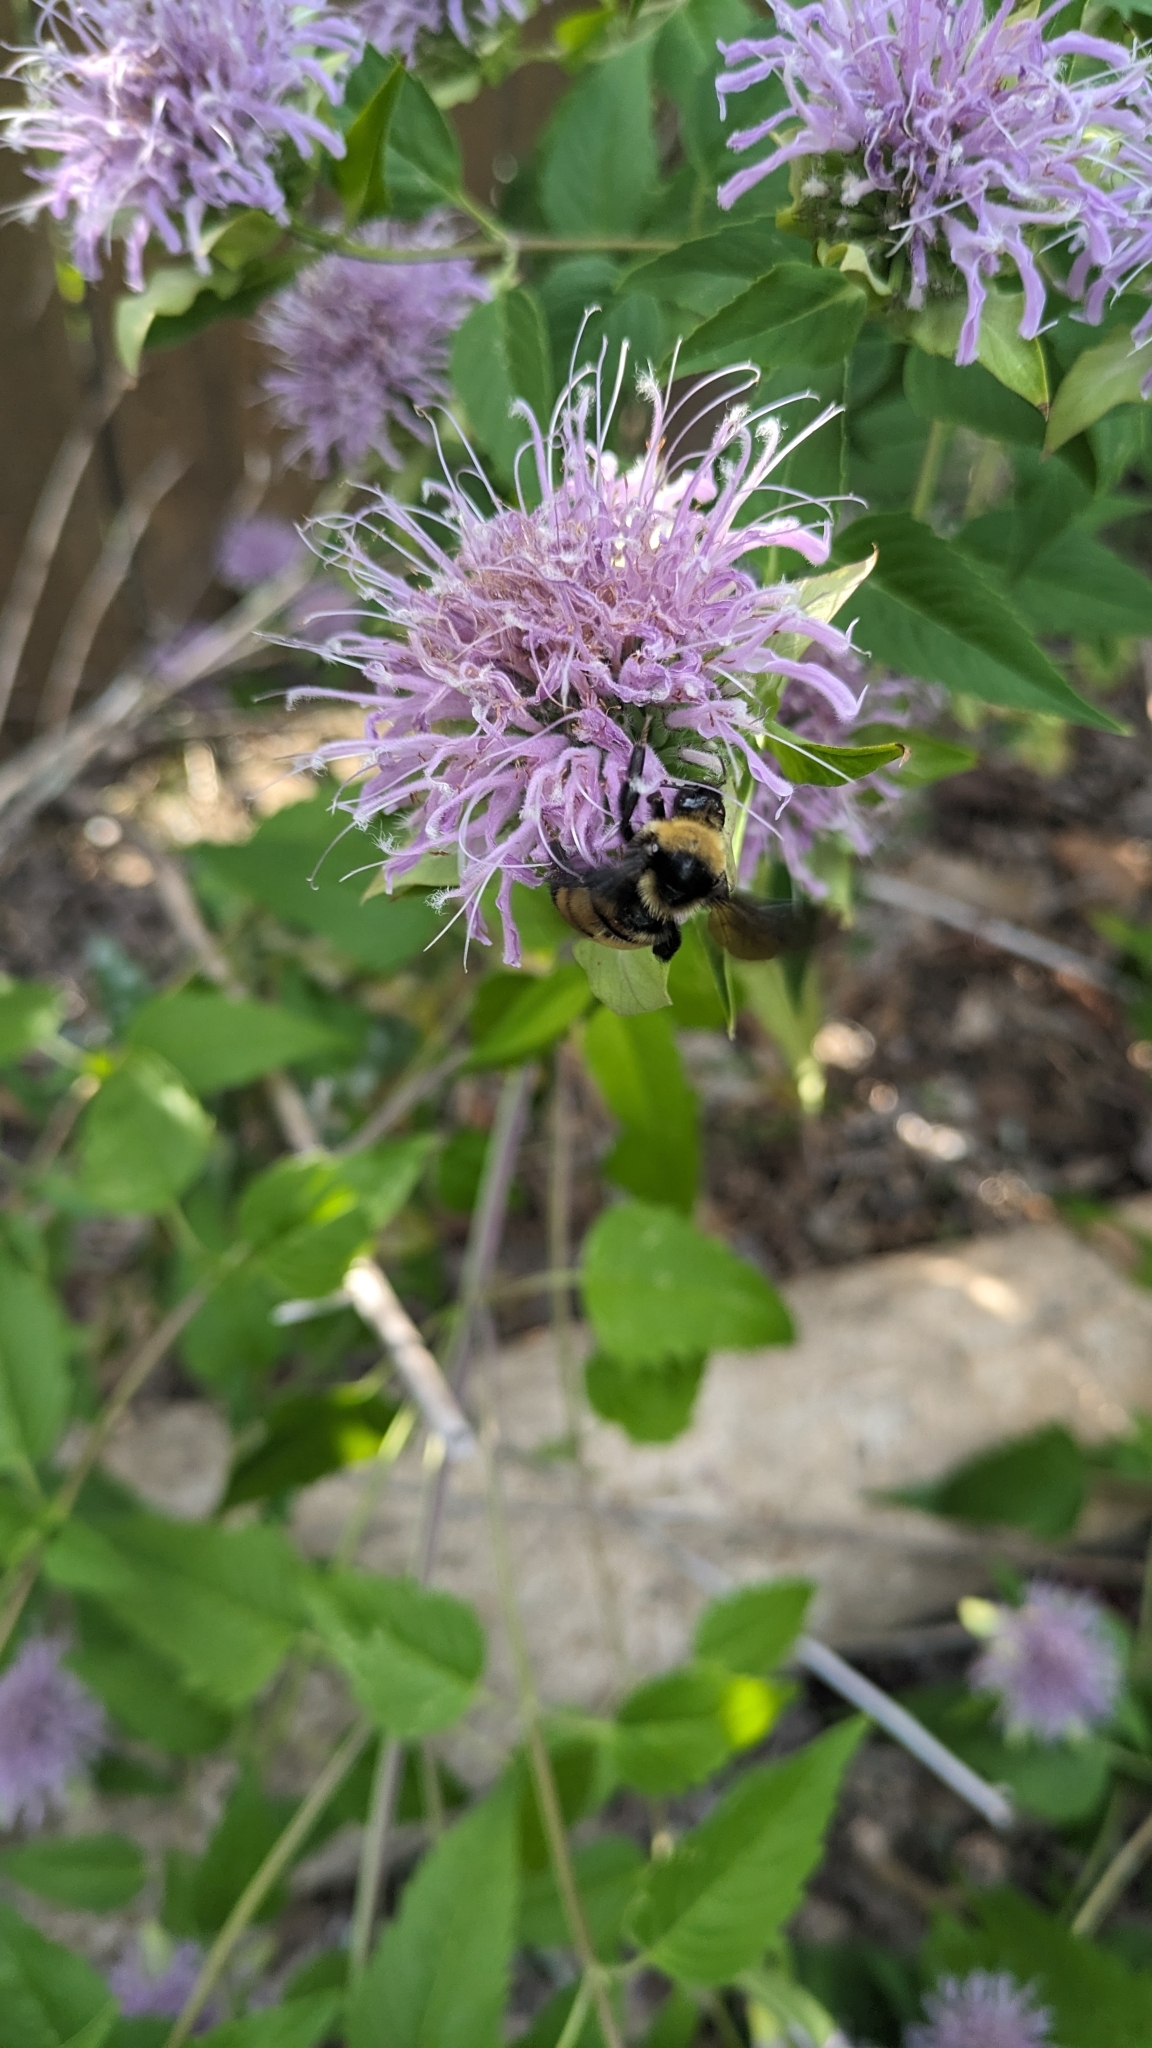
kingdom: Animalia
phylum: Arthropoda
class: Insecta
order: Hymenoptera
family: Apidae
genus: Bombus
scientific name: Bombus auricomus
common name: Black and gold bumble bee
